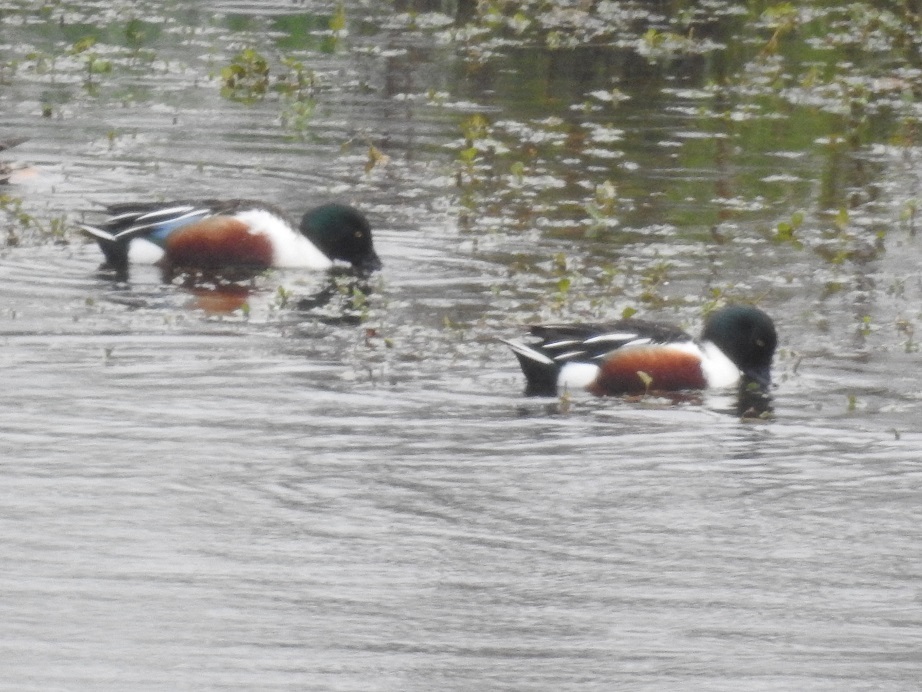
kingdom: Animalia
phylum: Chordata
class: Aves
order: Anseriformes
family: Anatidae
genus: Spatula
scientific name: Spatula clypeata
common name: Northern shoveler
